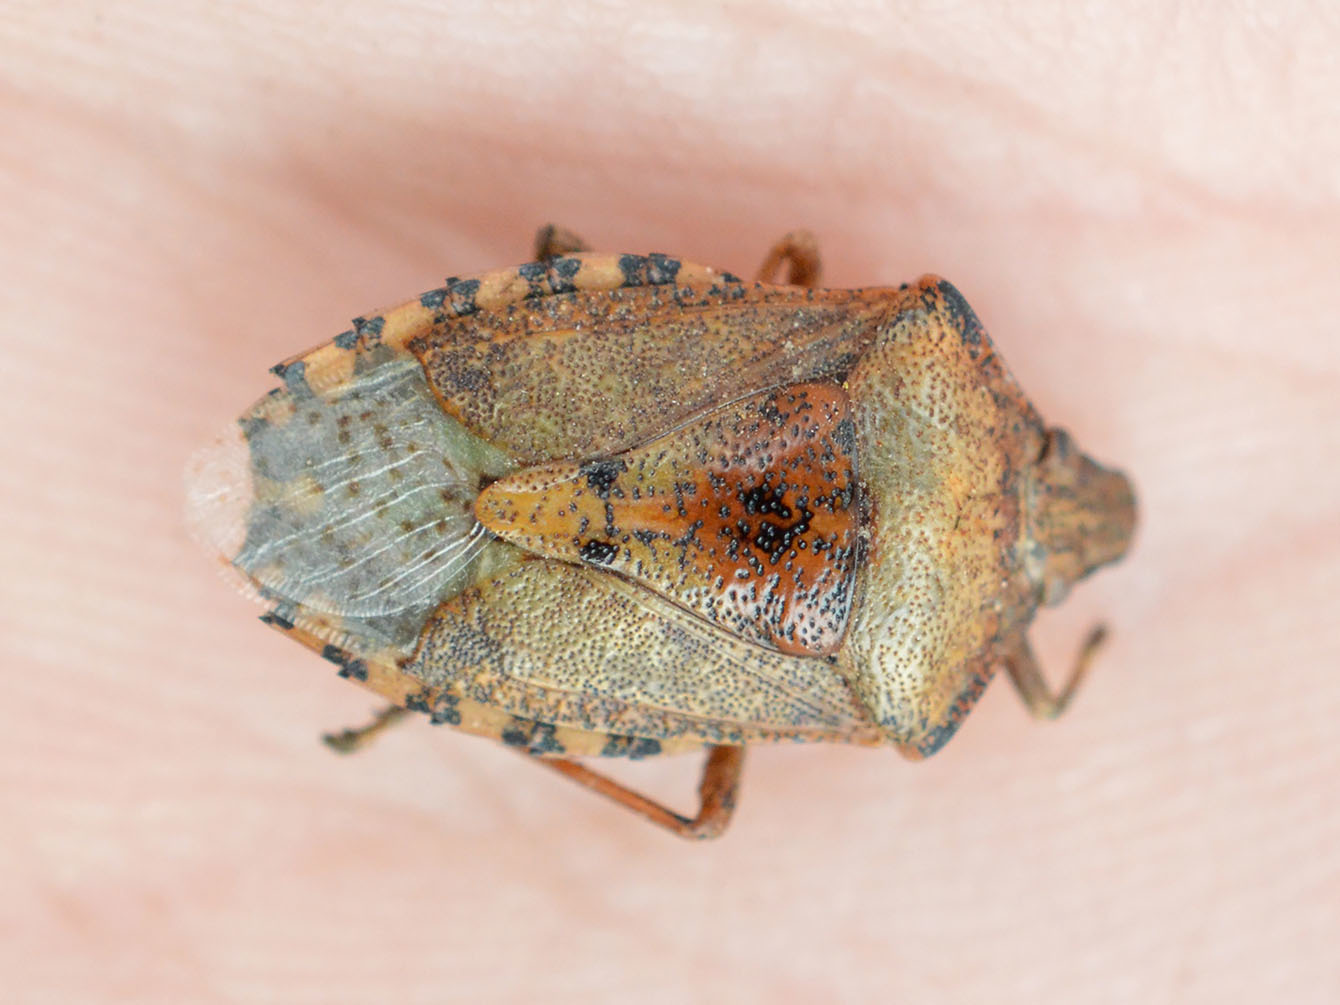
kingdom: Animalia
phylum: Arthropoda
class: Insecta
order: Hemiptera
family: Pentatomidae
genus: Rhaphigaster
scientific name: Rhaphigaster nebulosa
